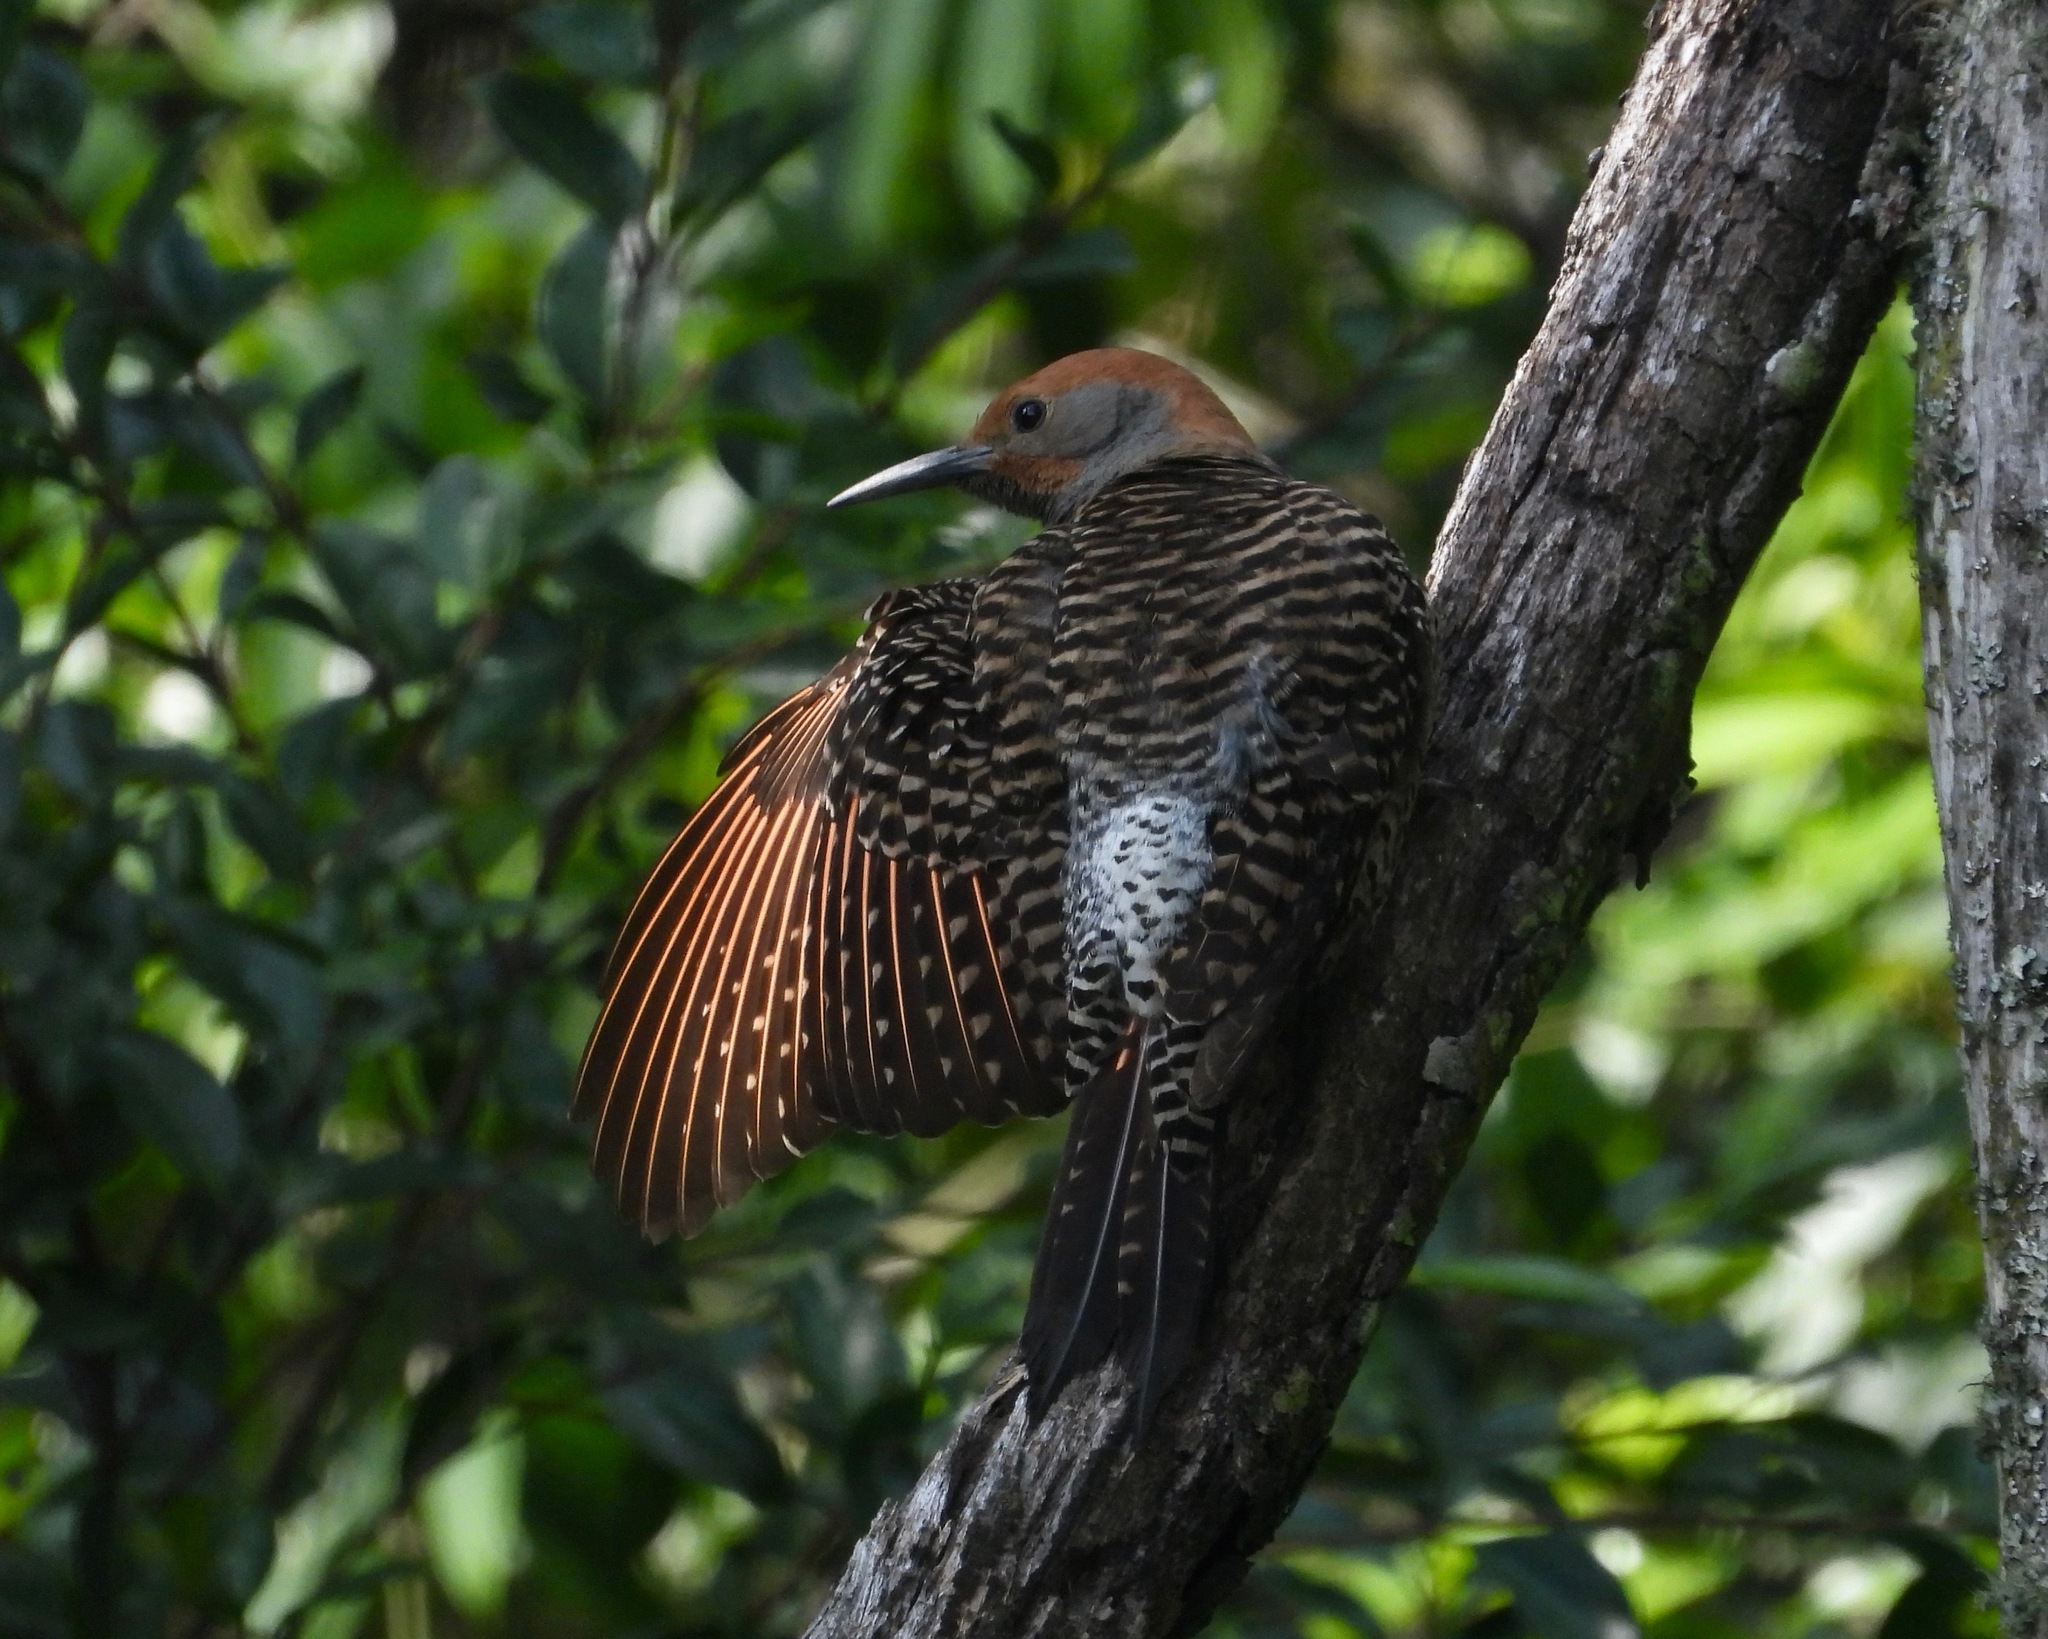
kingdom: Animalia
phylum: Chordata
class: Aves
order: Piciformes
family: Picidae
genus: Colaptes
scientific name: Colaptes auratus
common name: Northern flicker
